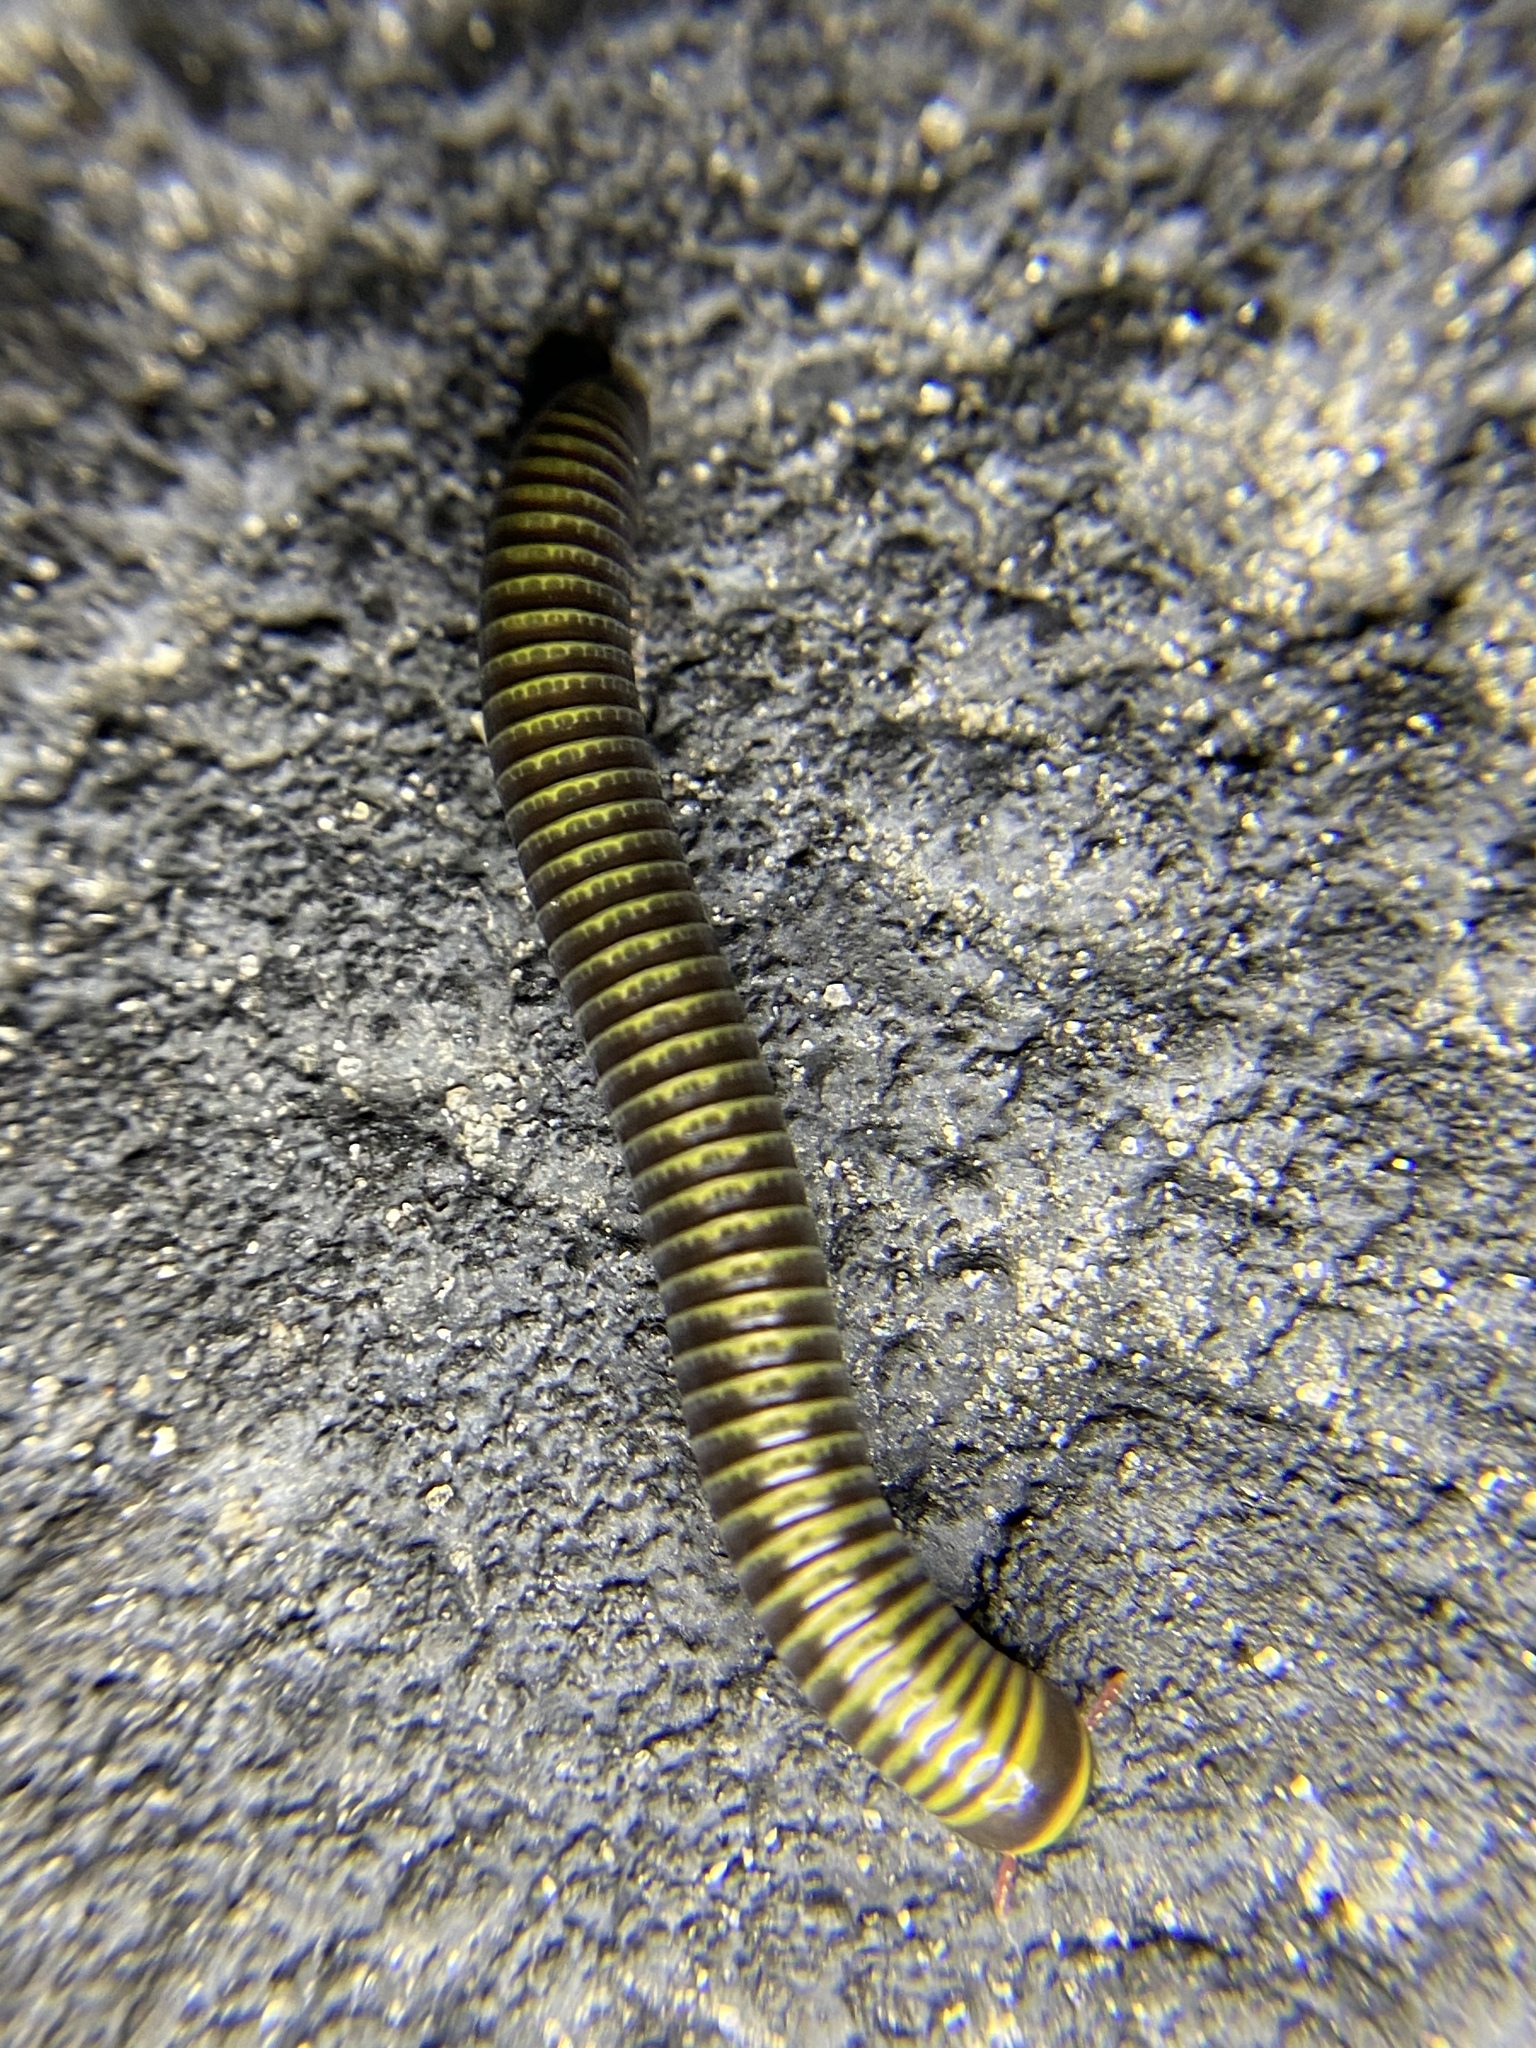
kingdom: Animalia
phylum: Arthropoda
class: Diplopoda
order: Spirobolida
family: Rhinocricidae
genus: Anadenobolus
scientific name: Anadenobolus monilicornis
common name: Caribbean millipede
